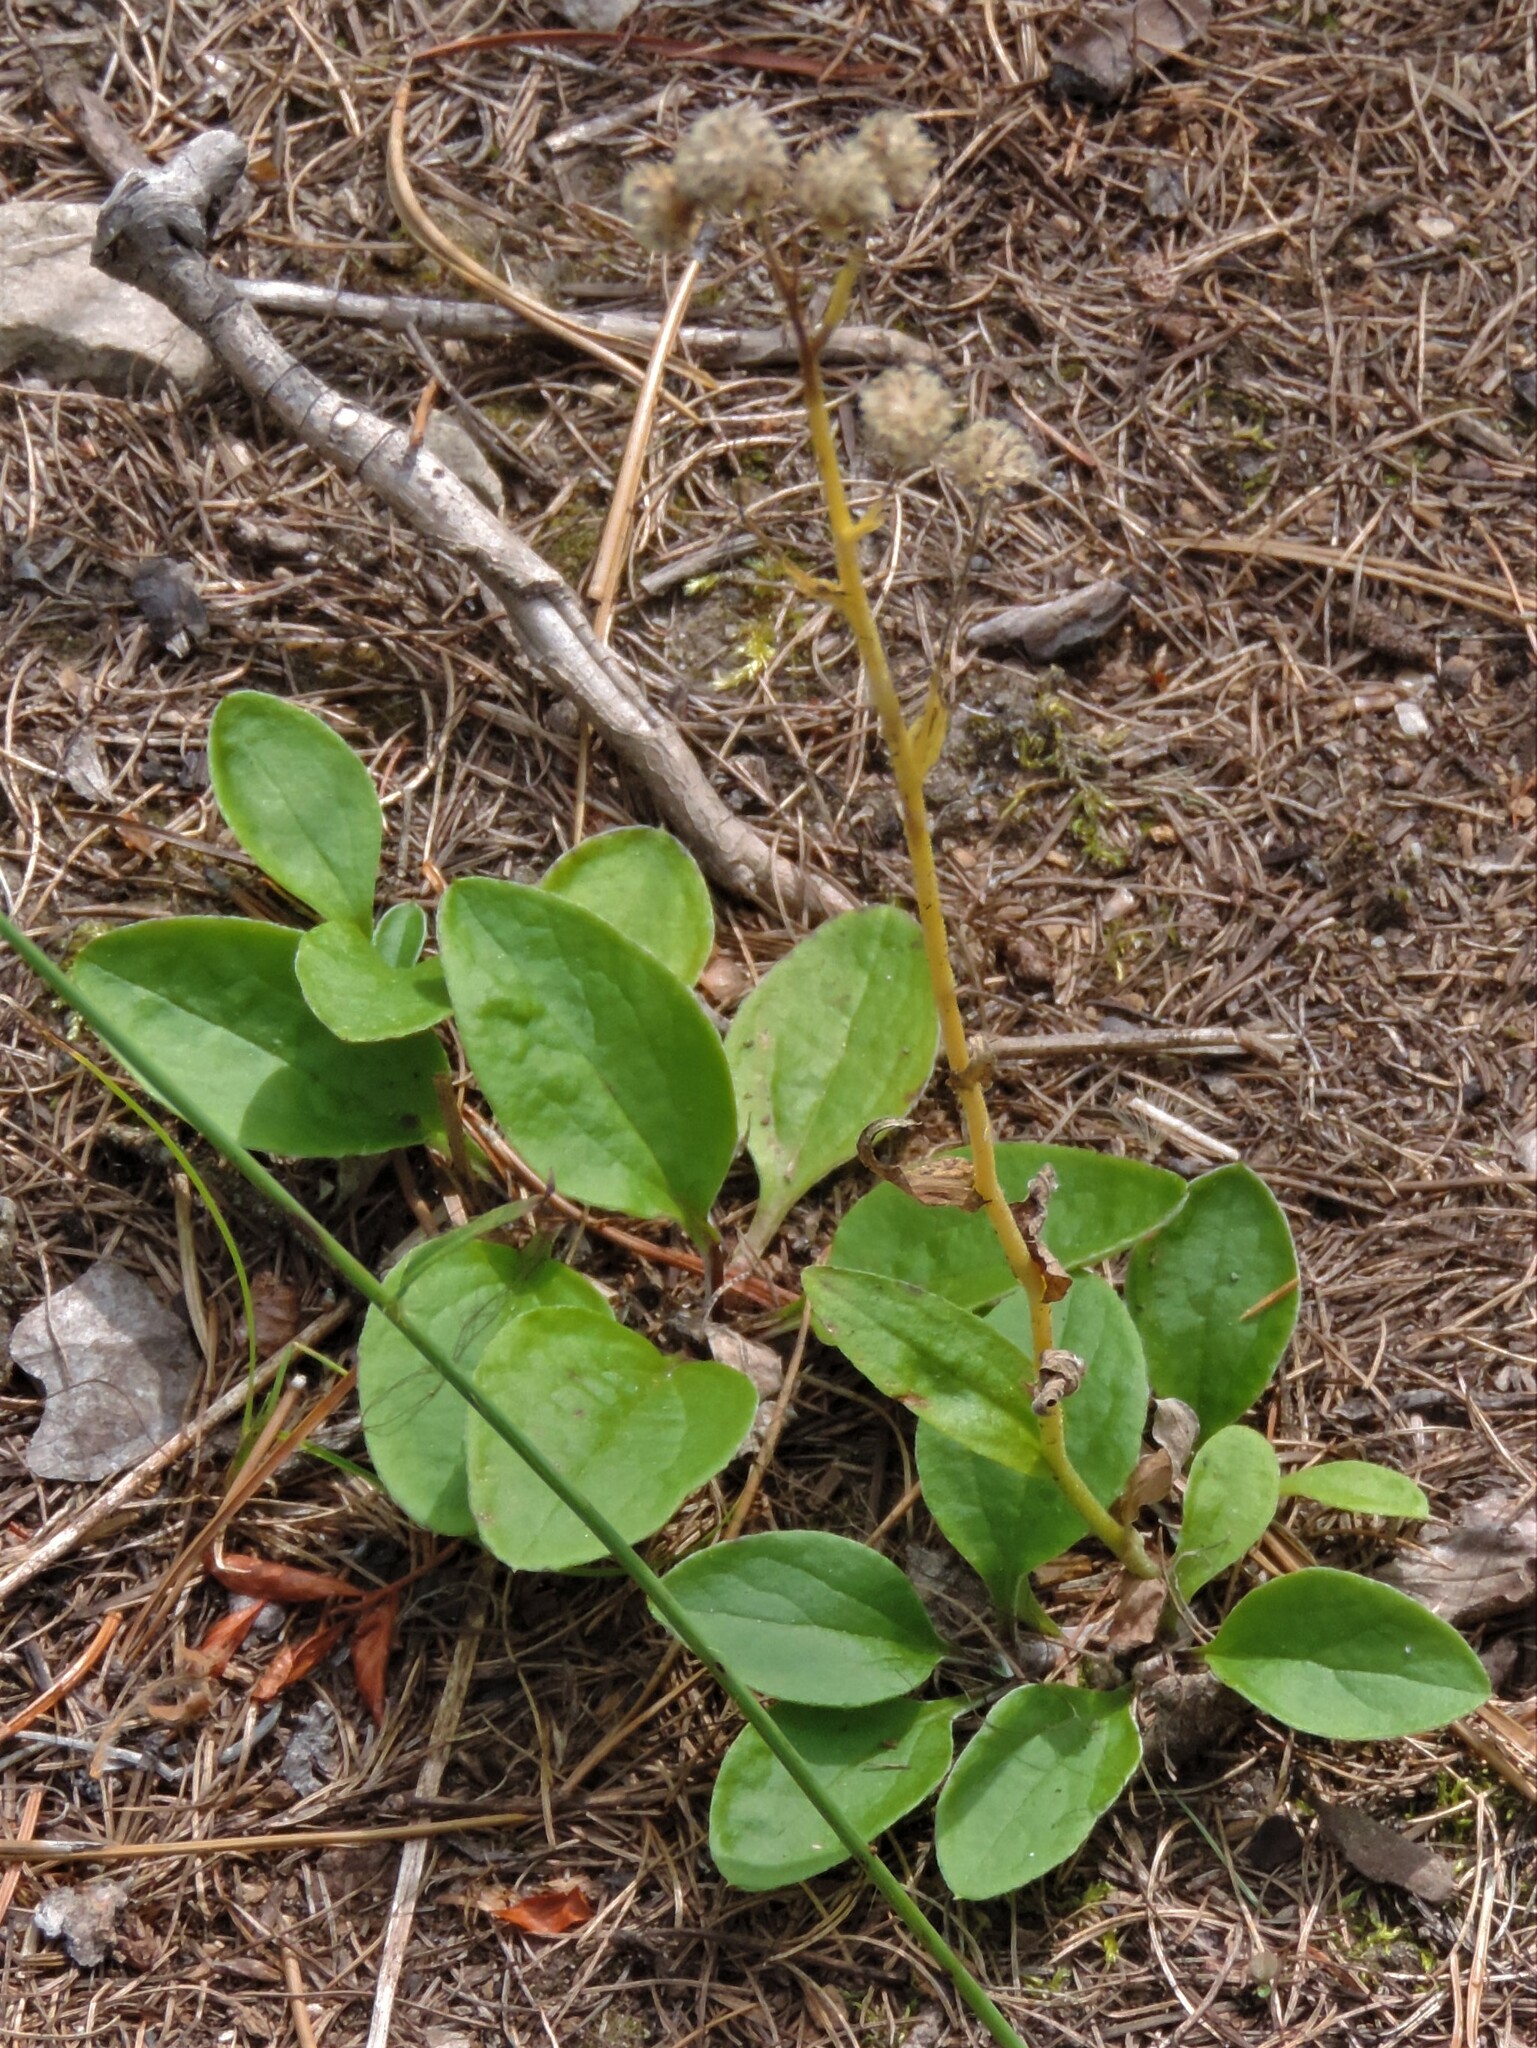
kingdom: Plantae
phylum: Tracheophyta
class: Magnoliopsida
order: Asterales
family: Asteraceae
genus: Antennaria
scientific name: Antennaria racemosa
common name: Racemose pussytoes
